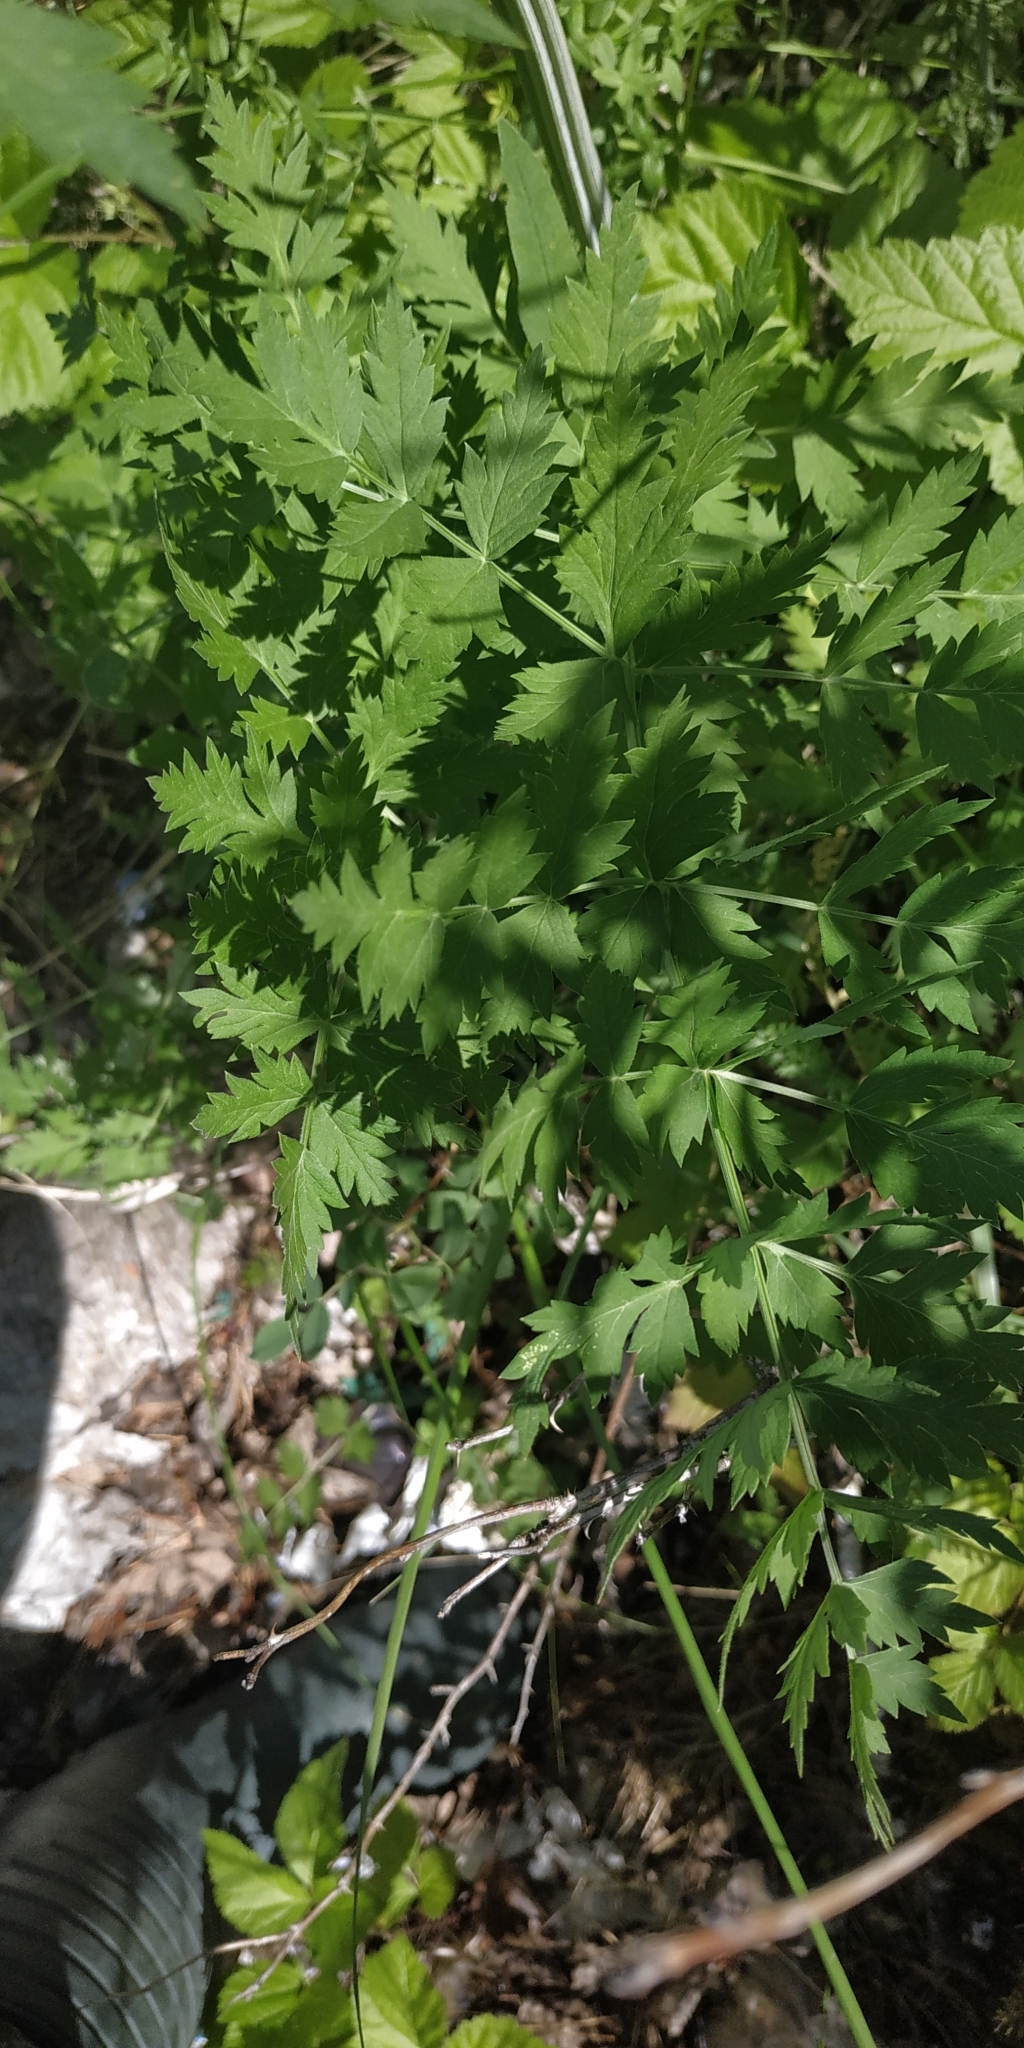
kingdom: Plantae
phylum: Tracheophyta
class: Magnoliopsida
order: Apiales
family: Apiaceae
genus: Seseli
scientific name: Seseli libanotis
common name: Mooncarrot
